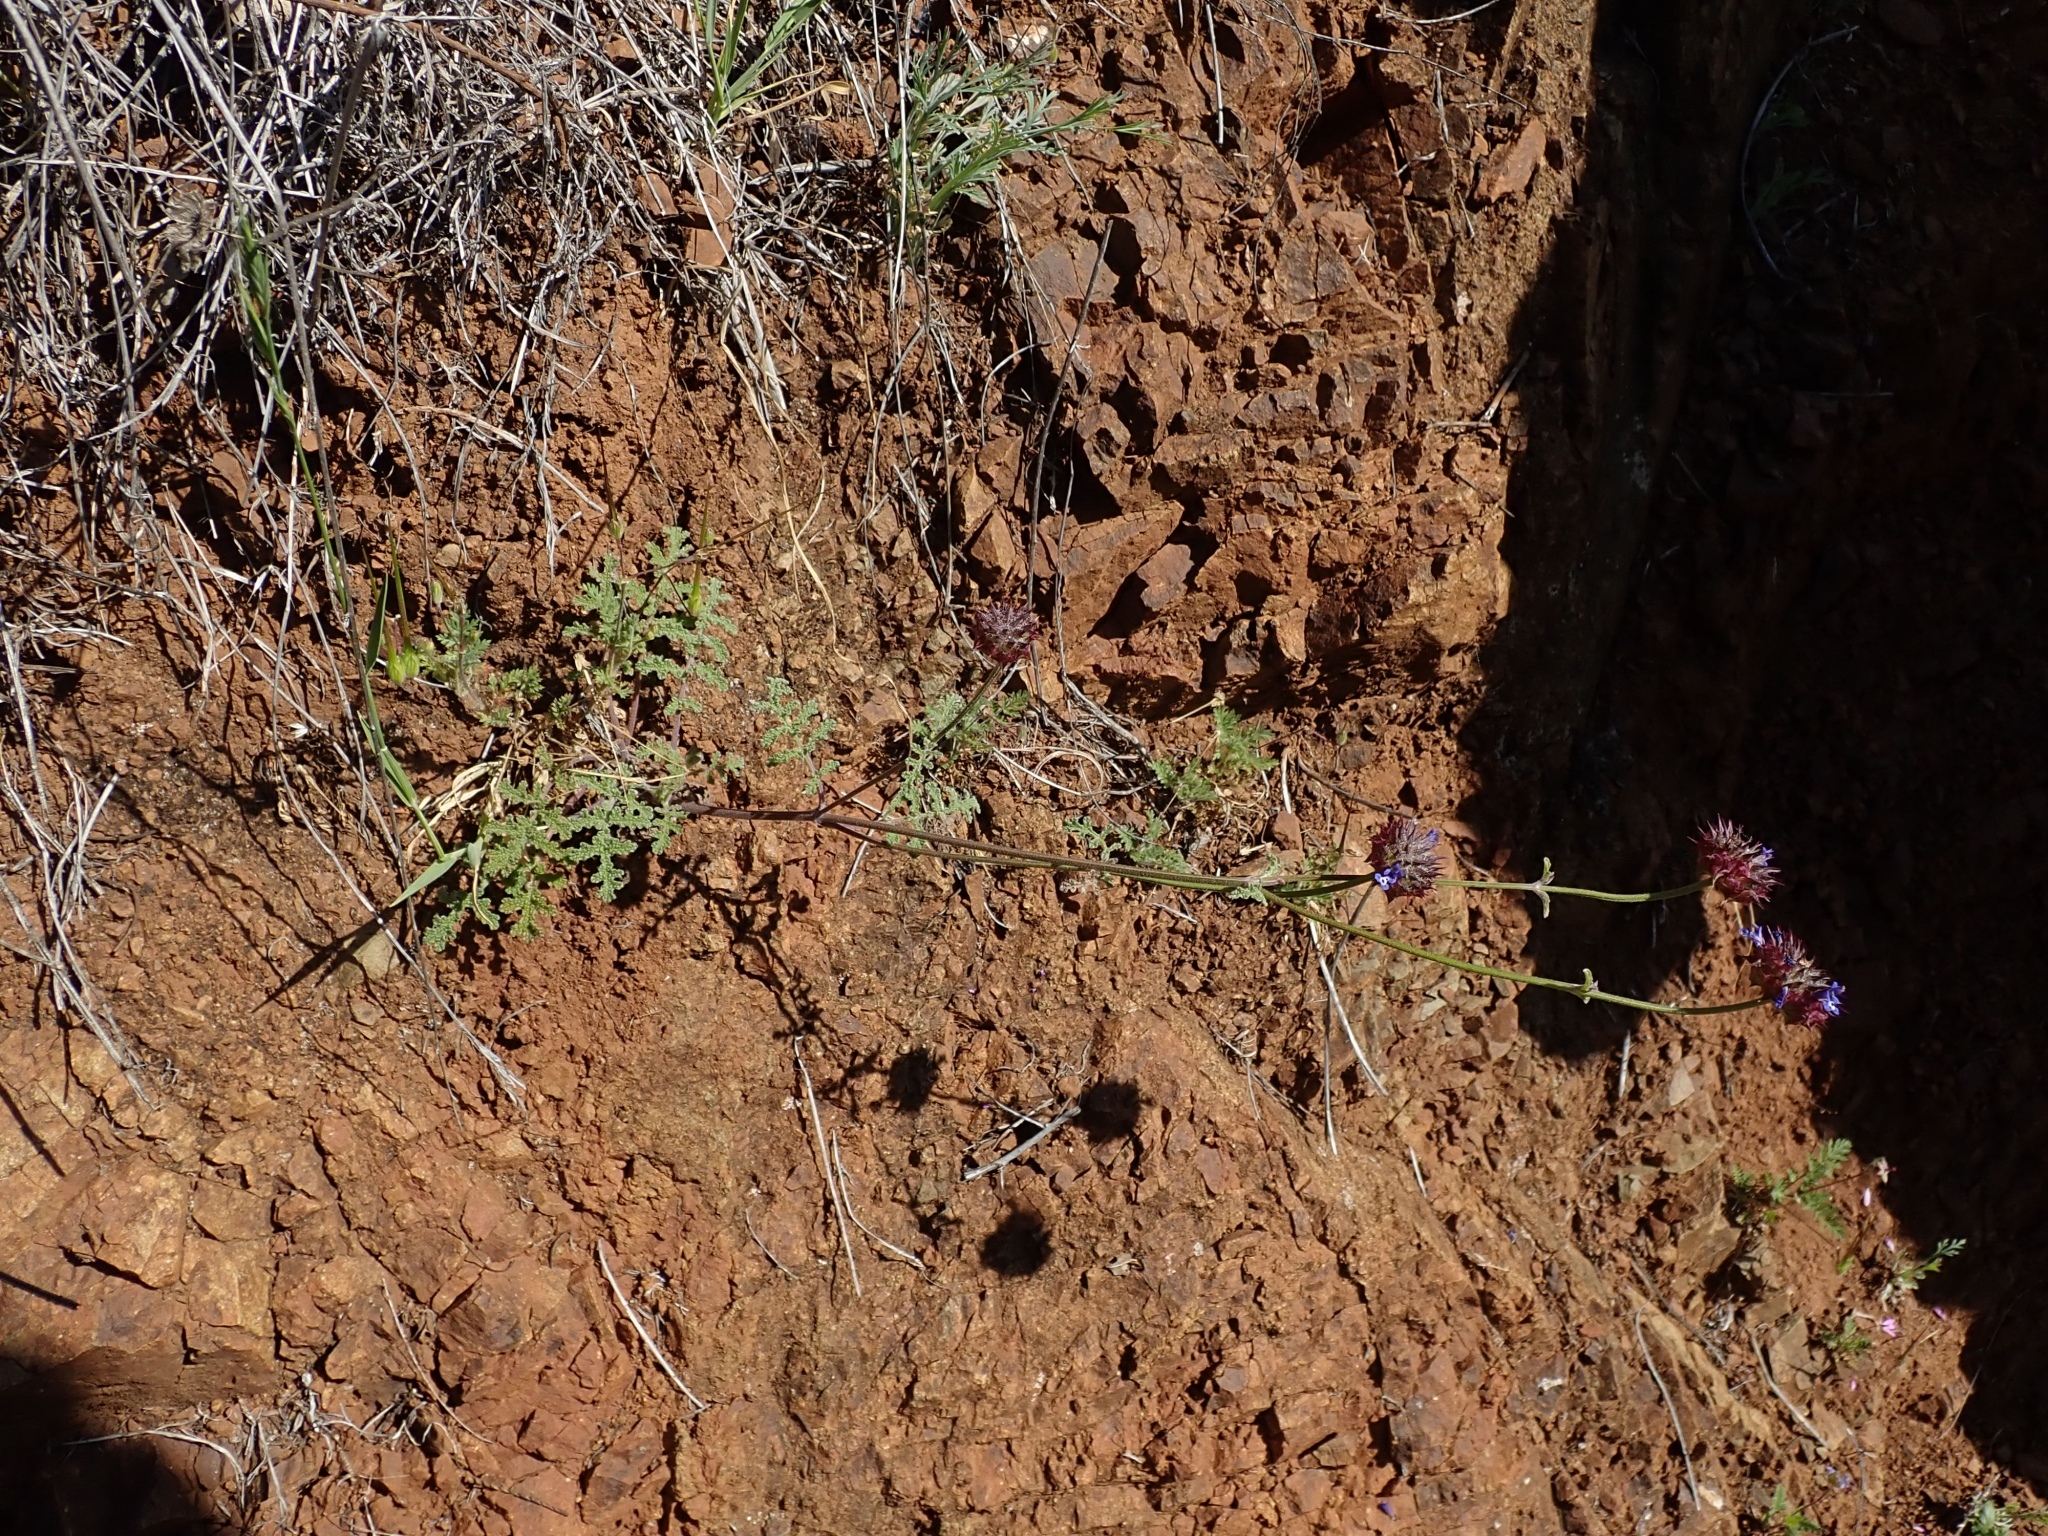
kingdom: Plantae
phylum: Tracheophyta
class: Magnoliopsida
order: Lamiales
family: Lamiaceae
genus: Salvia
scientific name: Salvia columbariae
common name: Chia
